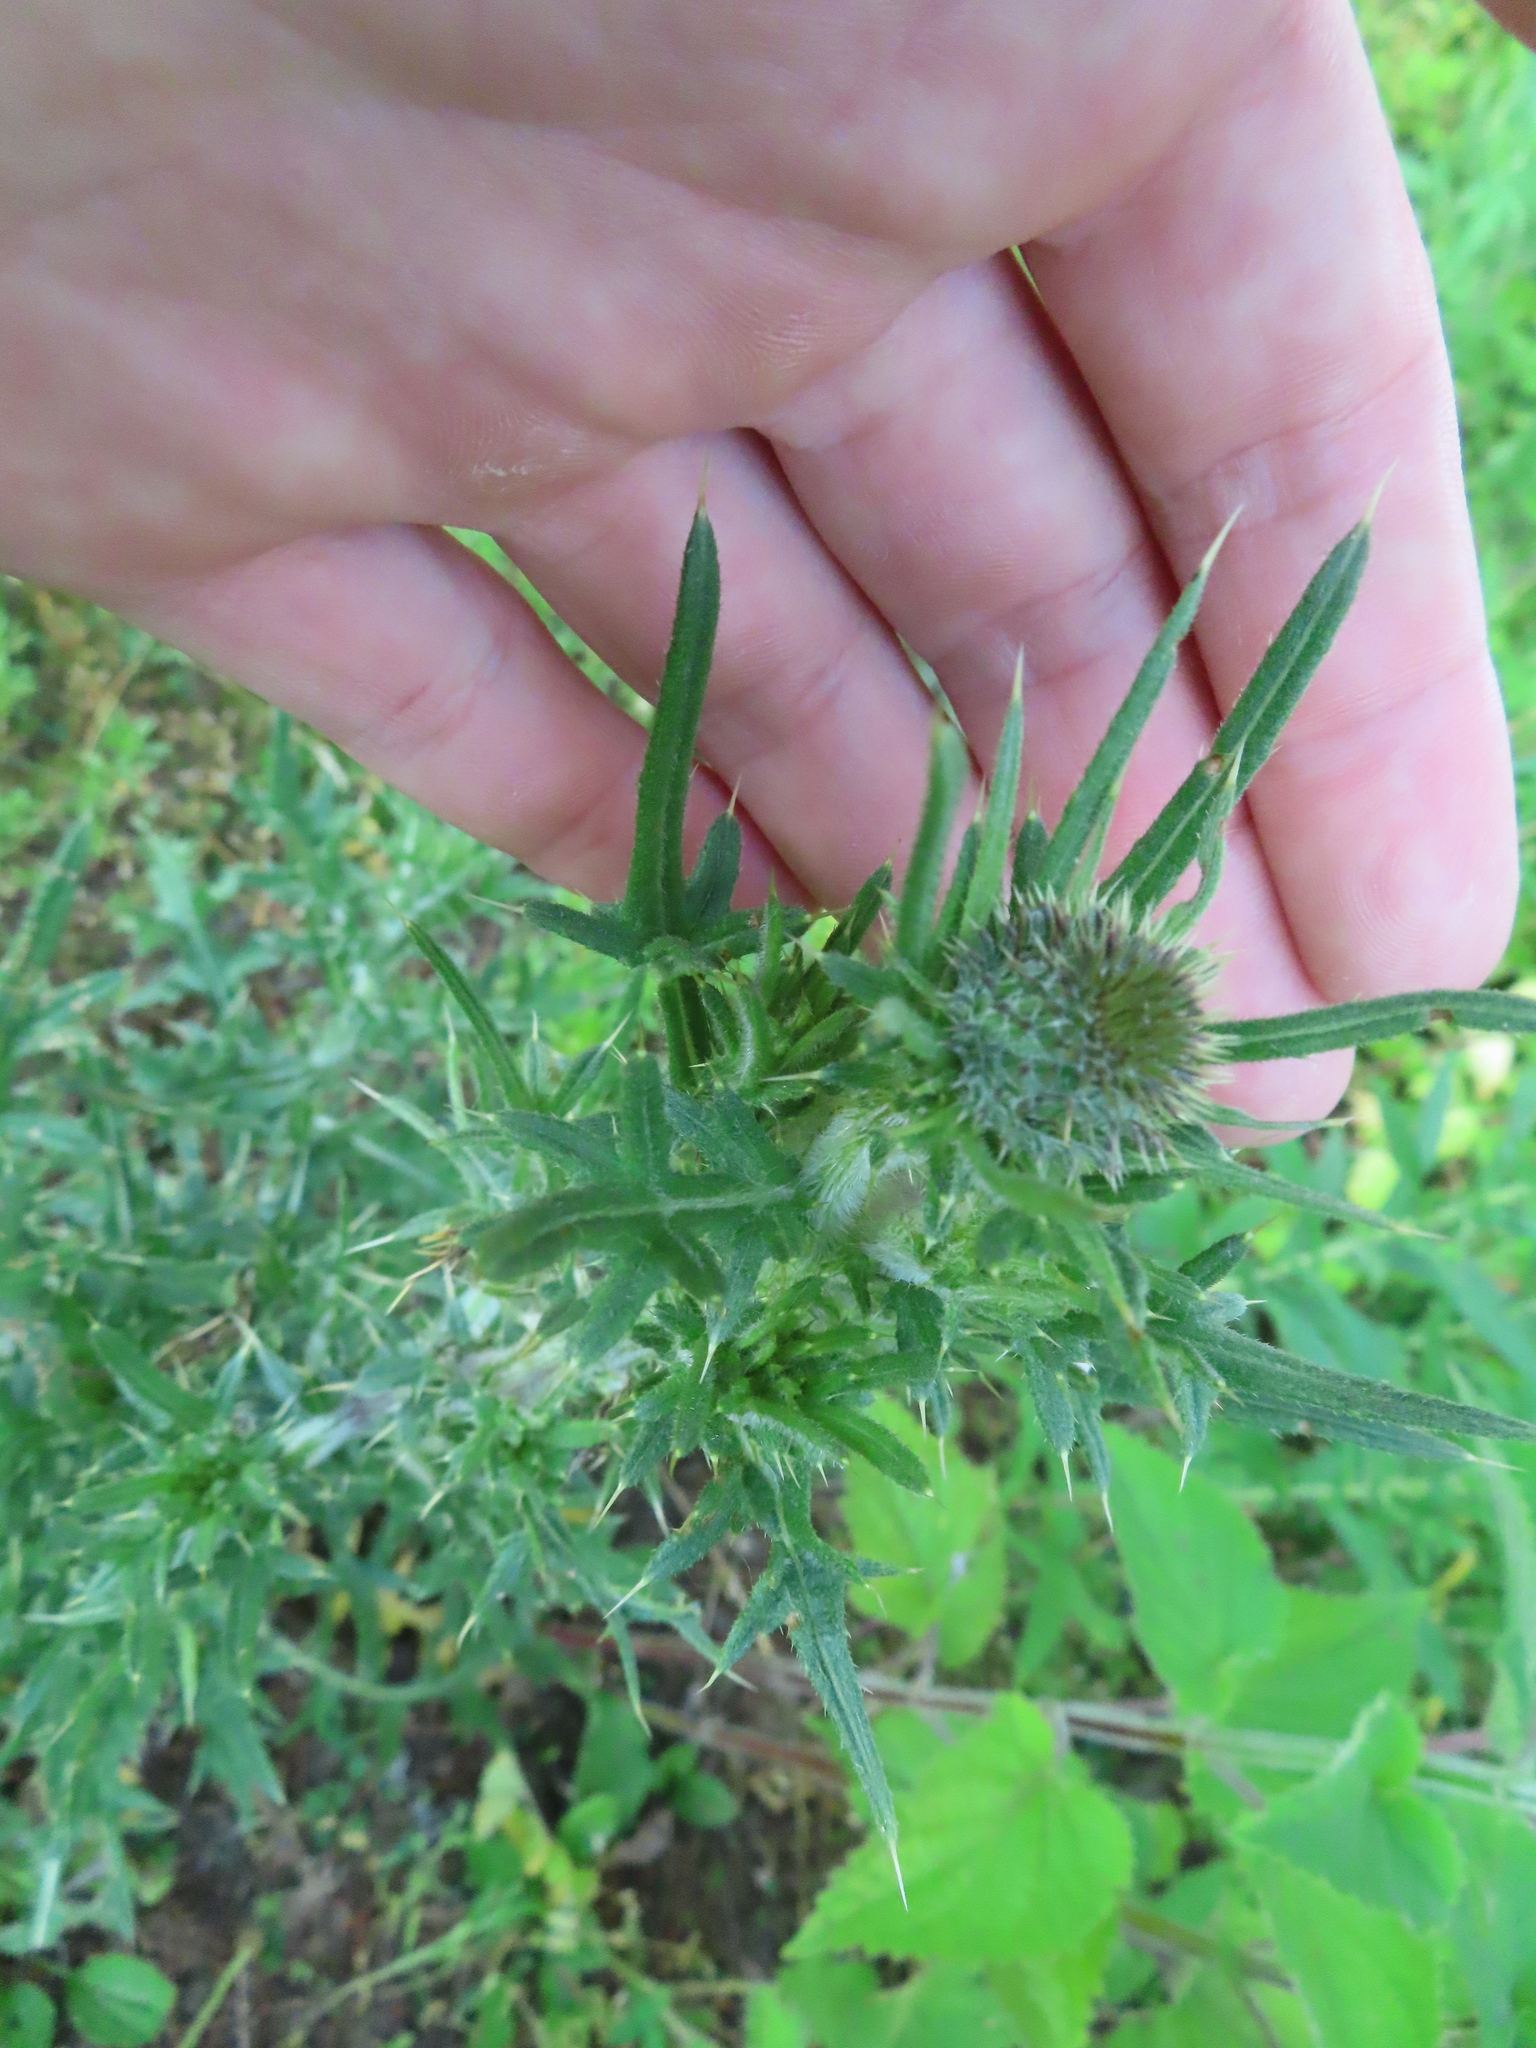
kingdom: Plantae
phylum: Tracheophyta
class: Magnoliopsida
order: Asterales
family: Asteraceae
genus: Cirsium
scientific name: Cirsium vulgare
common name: Bull thistle
